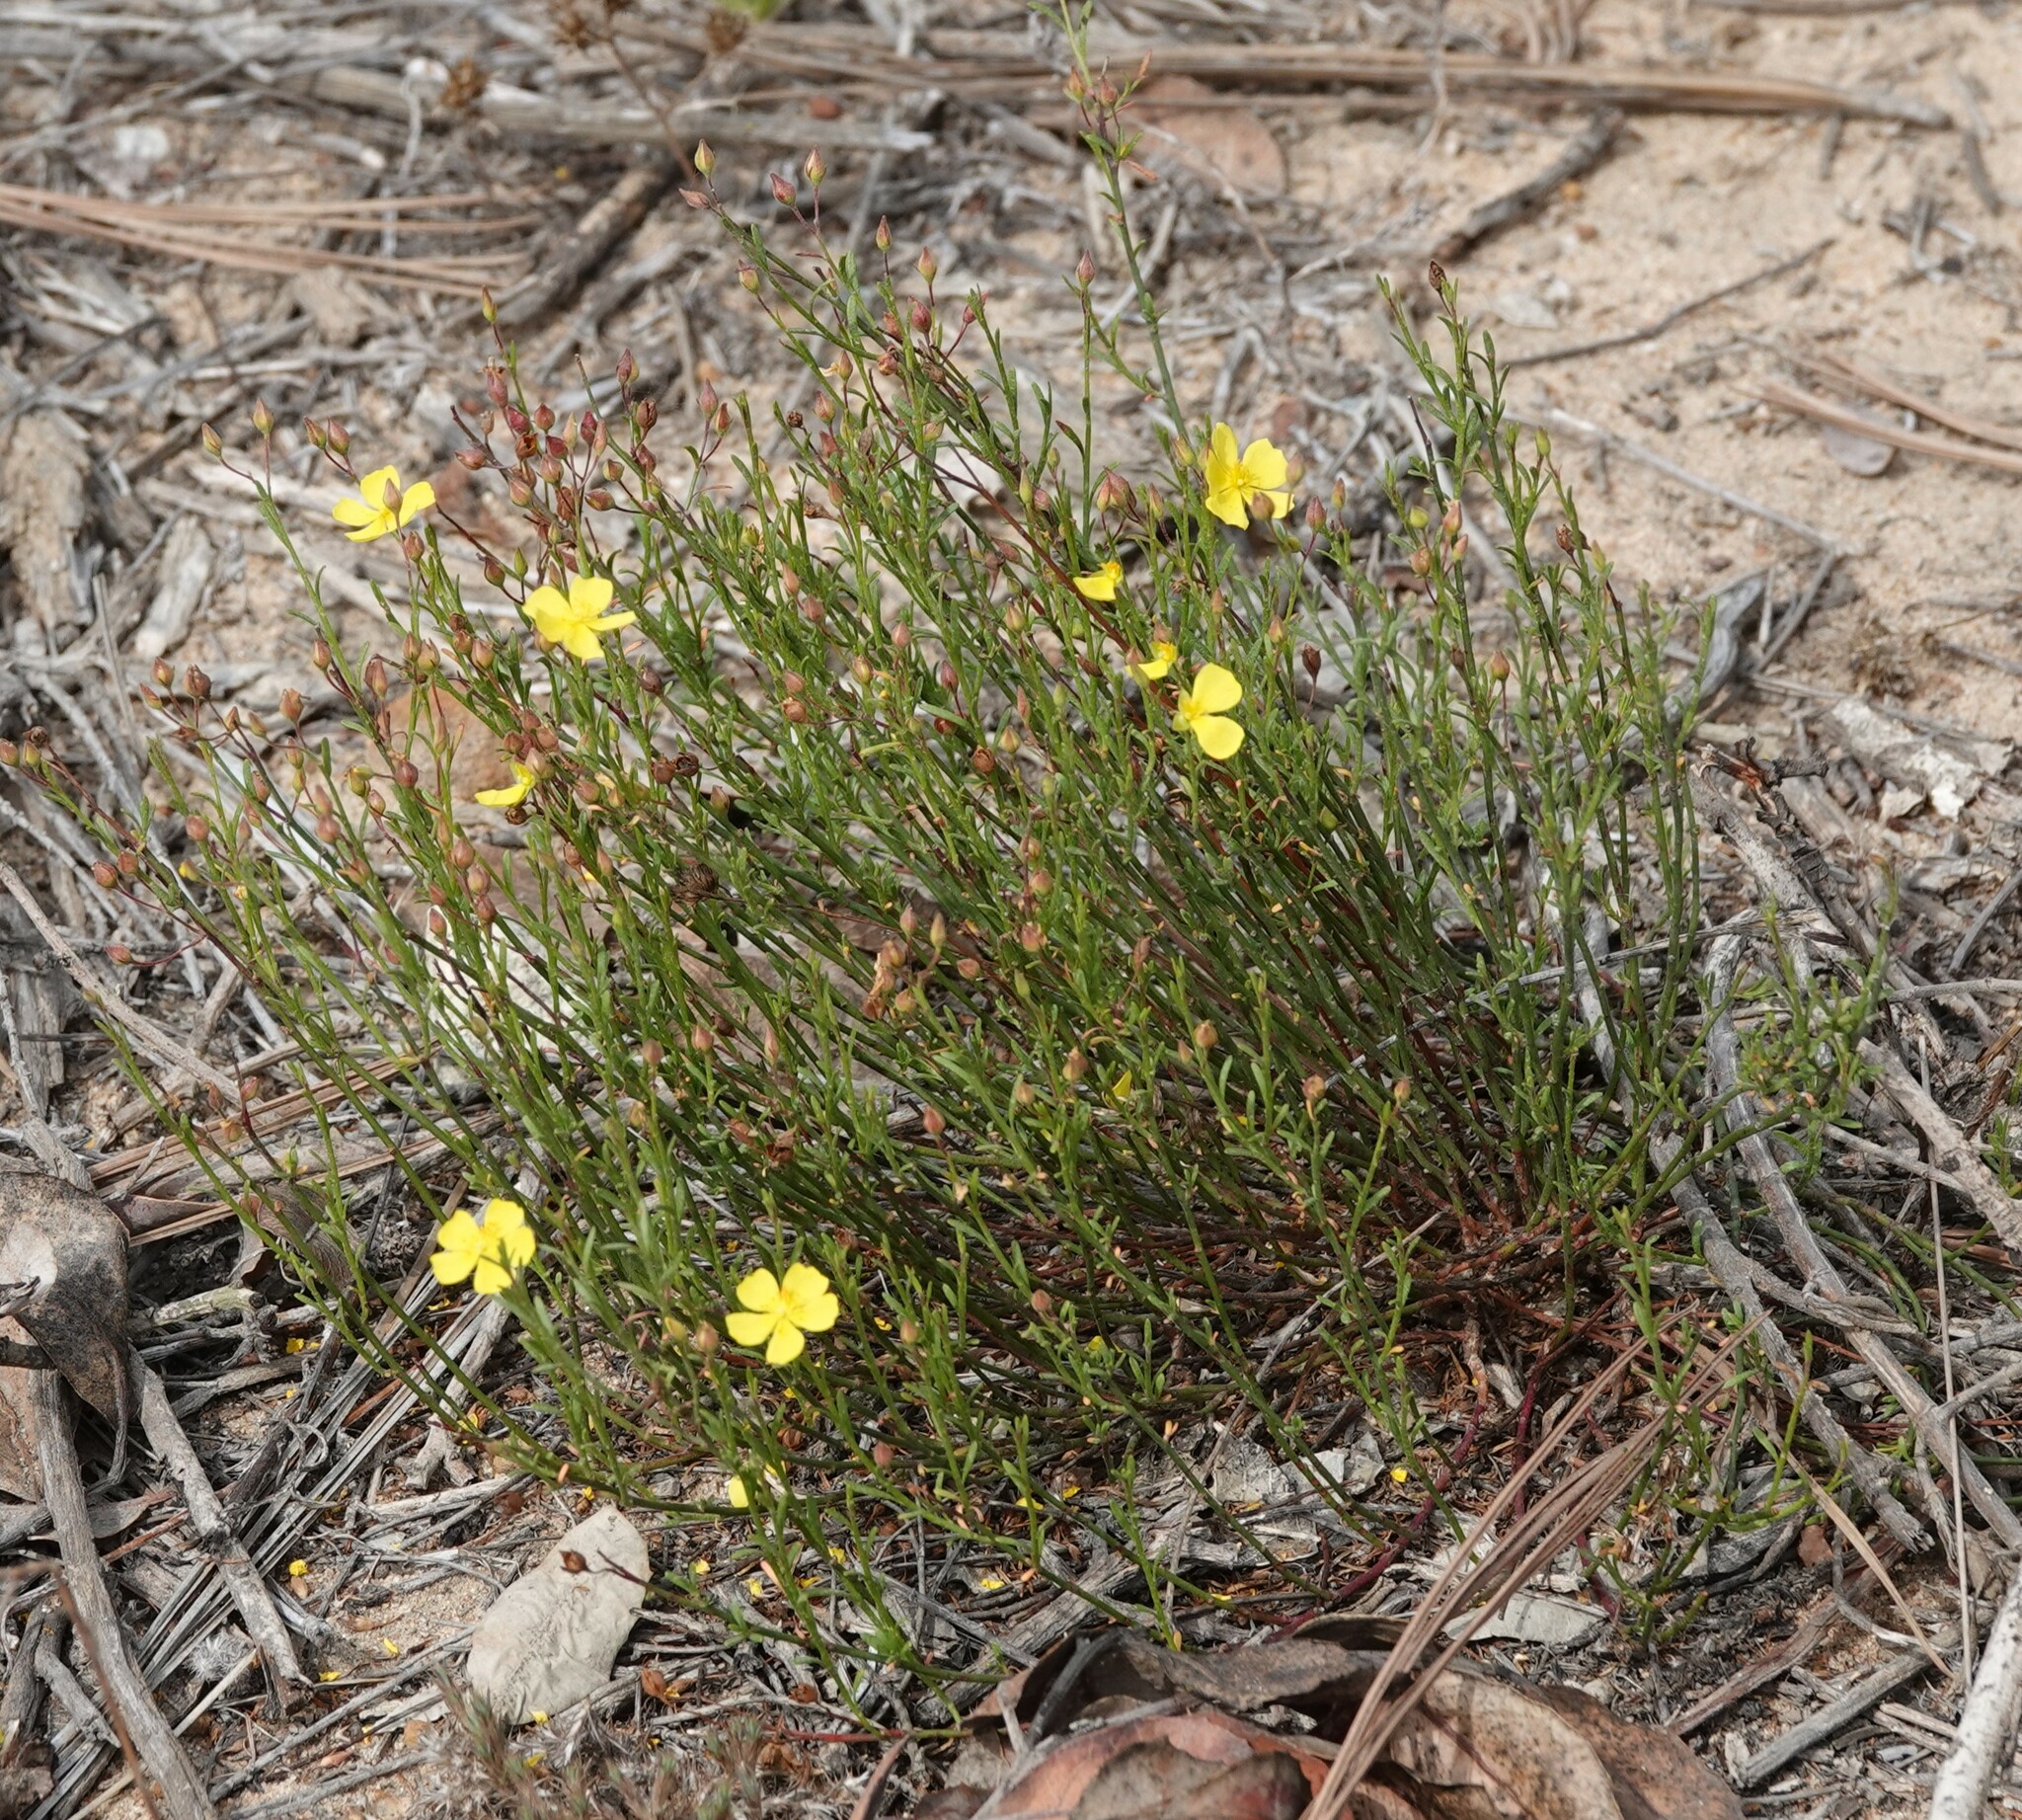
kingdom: Plantae
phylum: Tracheophyta
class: Magnoliopsida
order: Malvales
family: Cistaceae
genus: Crocanthemum
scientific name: Crocanthemum aldersonii
